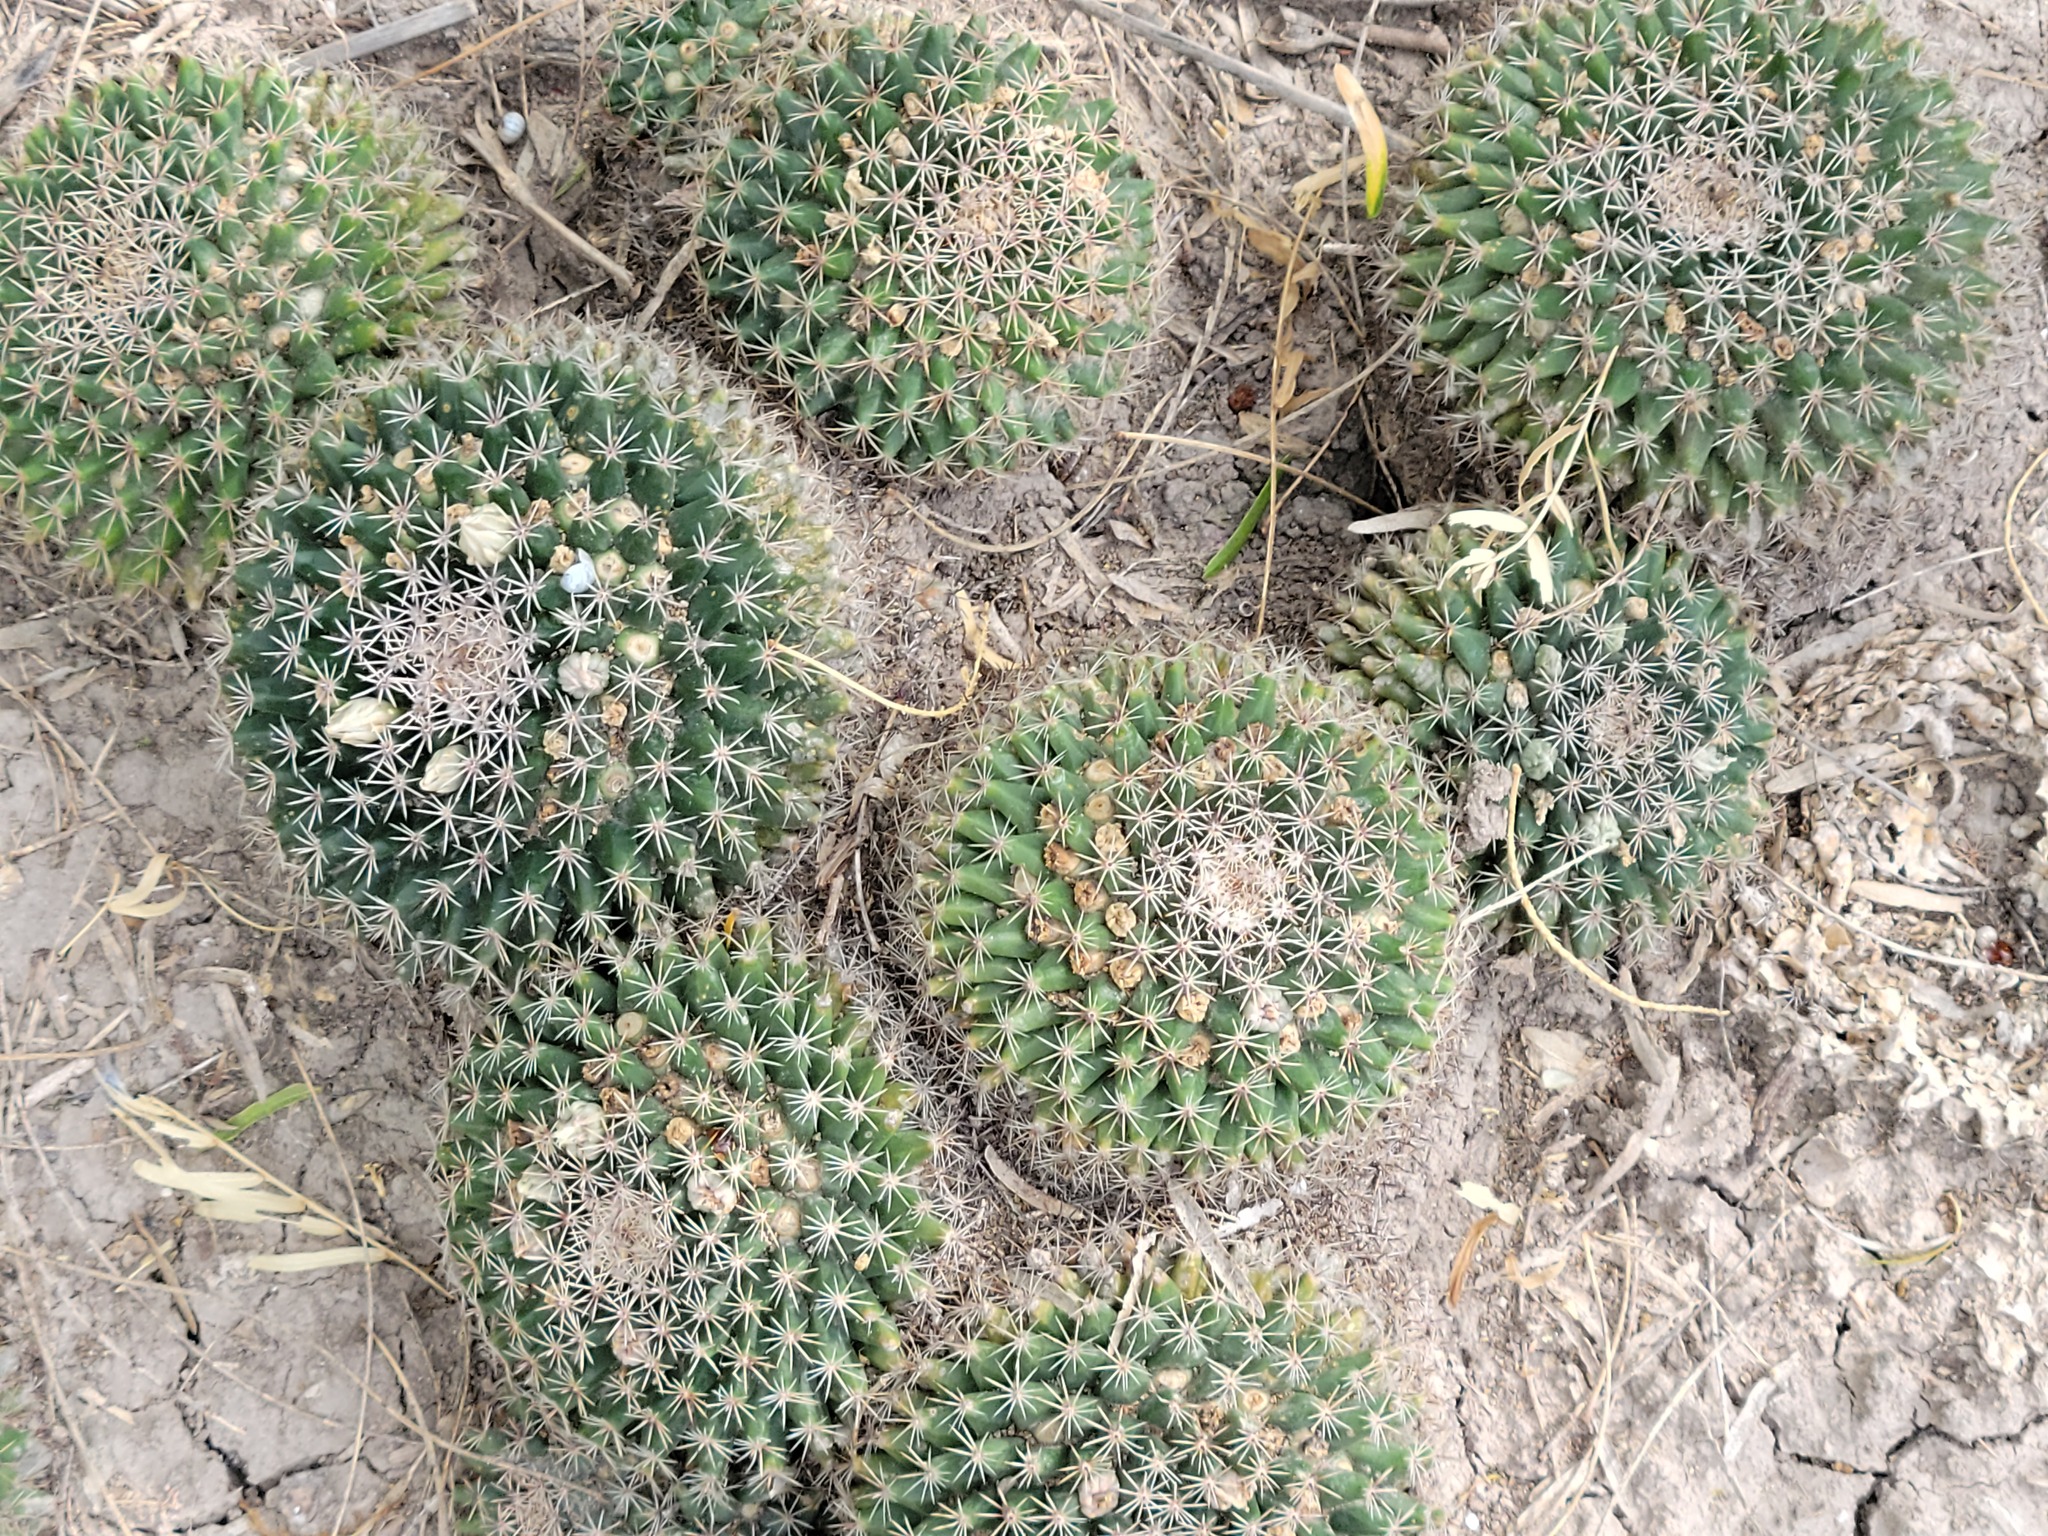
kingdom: Plantae
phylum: Tracheophyta
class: Magnoliopsida
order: Caryophyllales
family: Cactaceae
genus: Mammillaria
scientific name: Mammillaria heyderi
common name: Little nipple cactus
